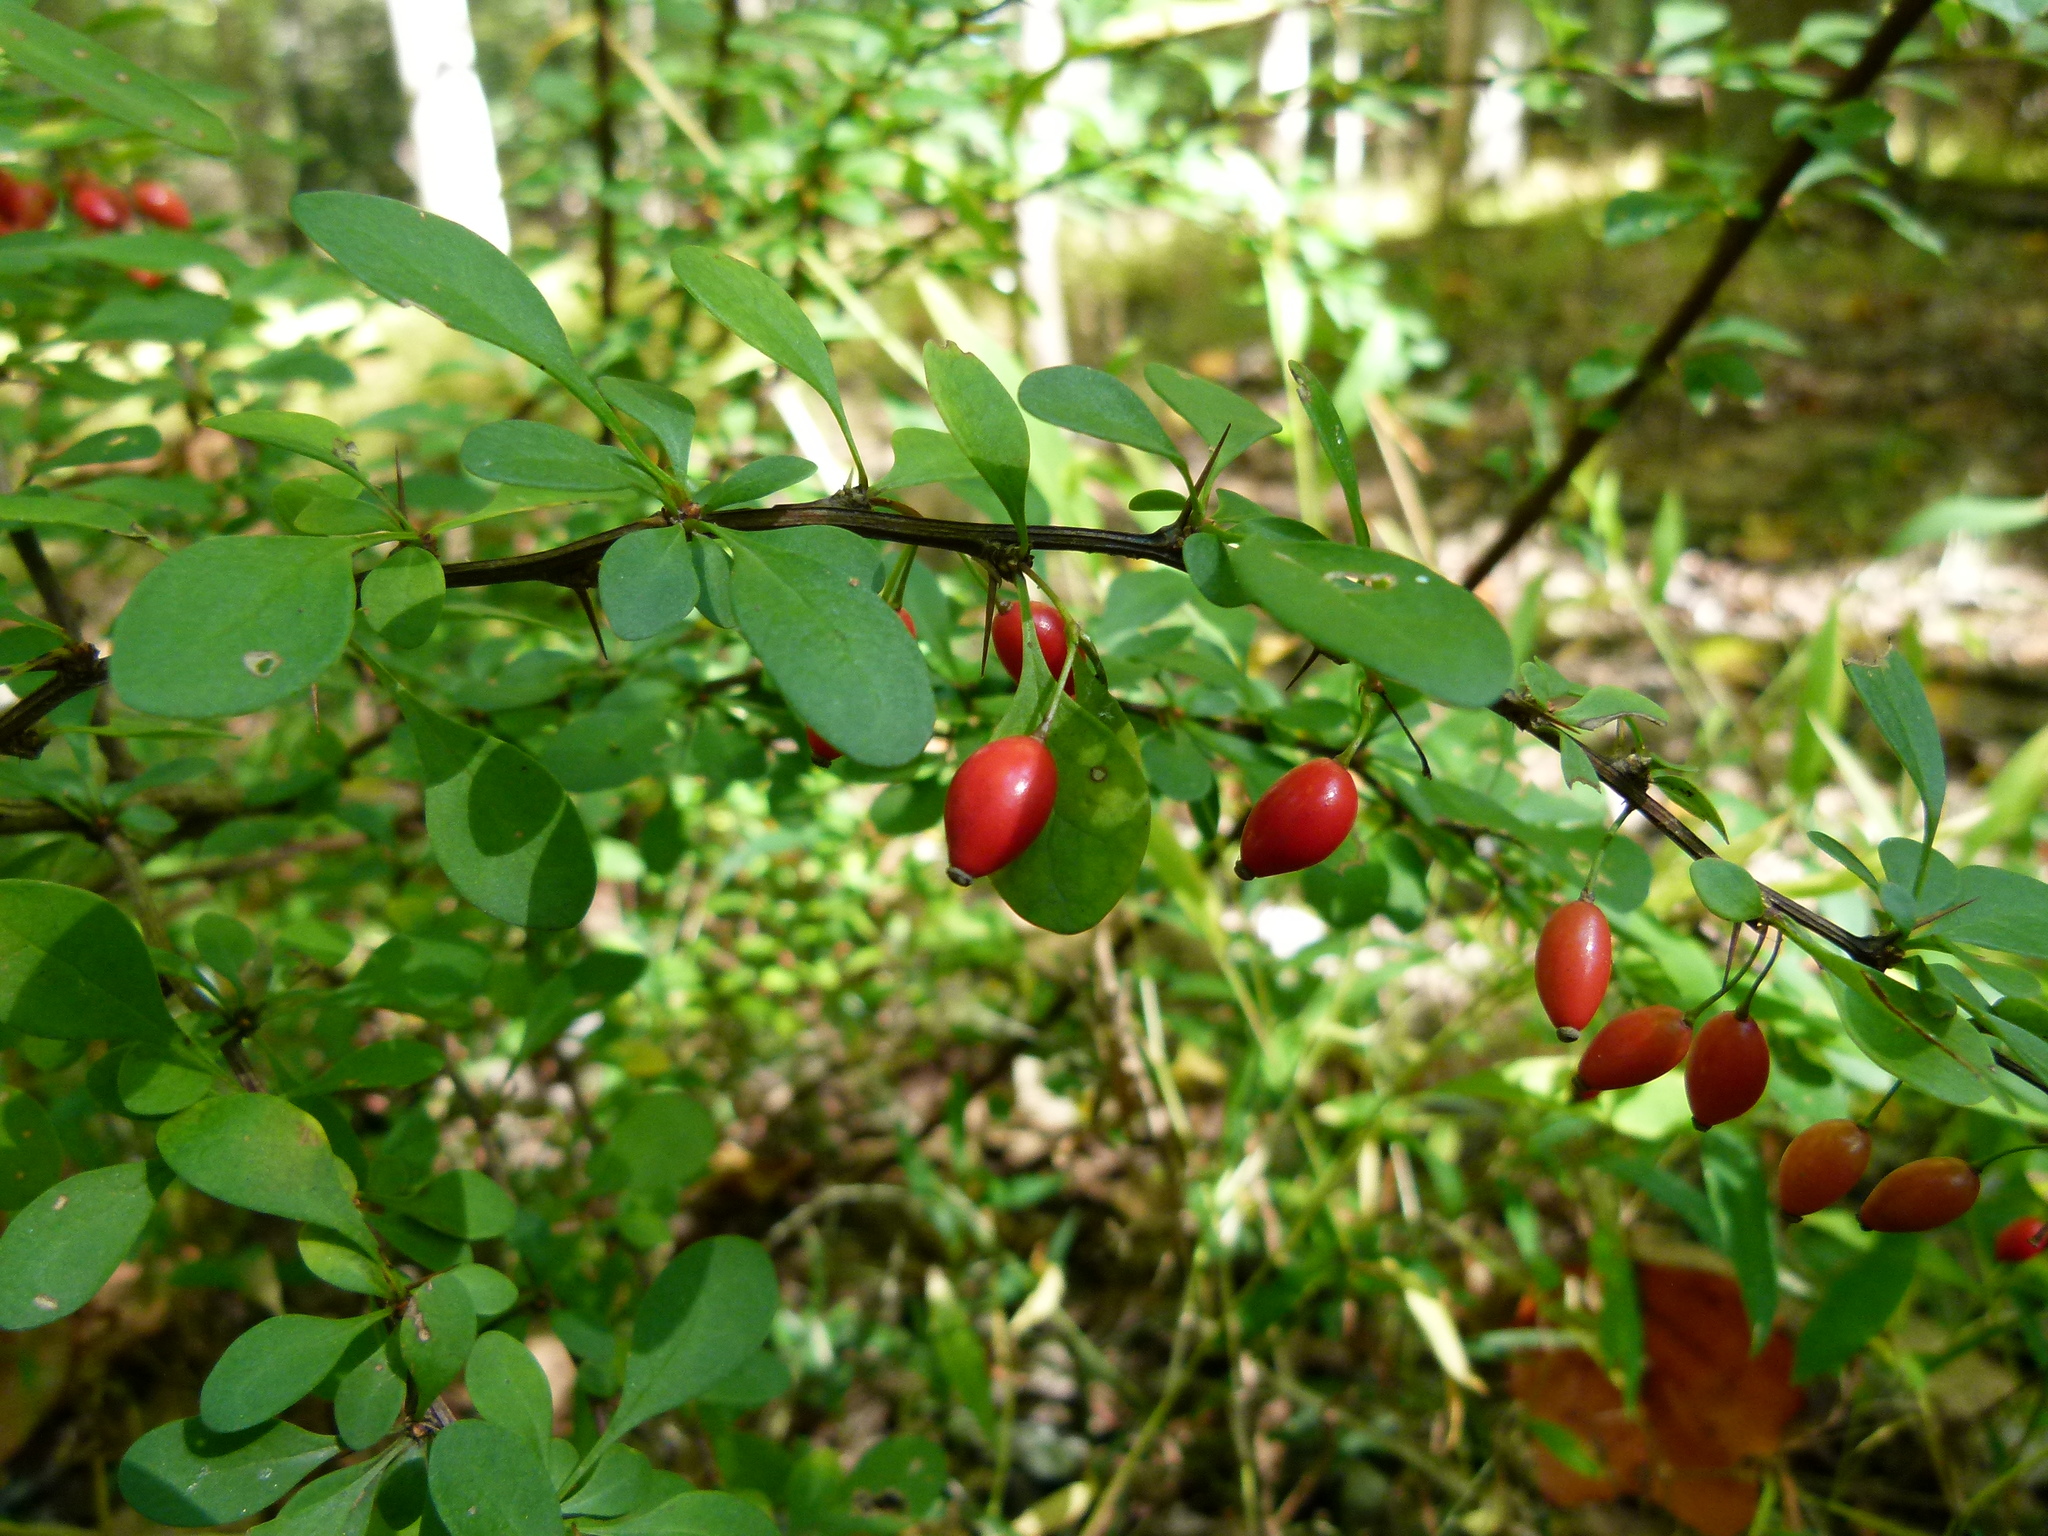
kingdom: Plantae
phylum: Tracheophyta
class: Magnoliopsida
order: Ranunculales
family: Berberidaceae
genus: Berberis
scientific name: Berberis thunbergii
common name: Japanese barberry
